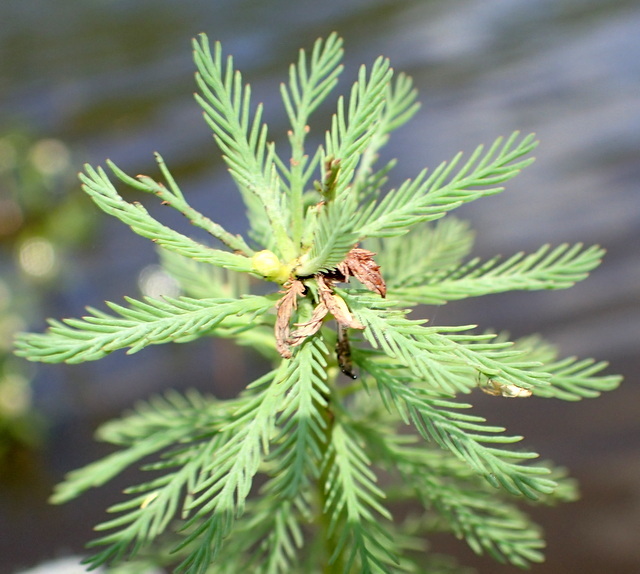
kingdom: Plantae
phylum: Tracheophyta
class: Magnoliopsida
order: Saxifragales
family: Haloragaceae
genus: Myriophyllum
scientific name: Myriophyllum aquaticum
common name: Parrot's feather
